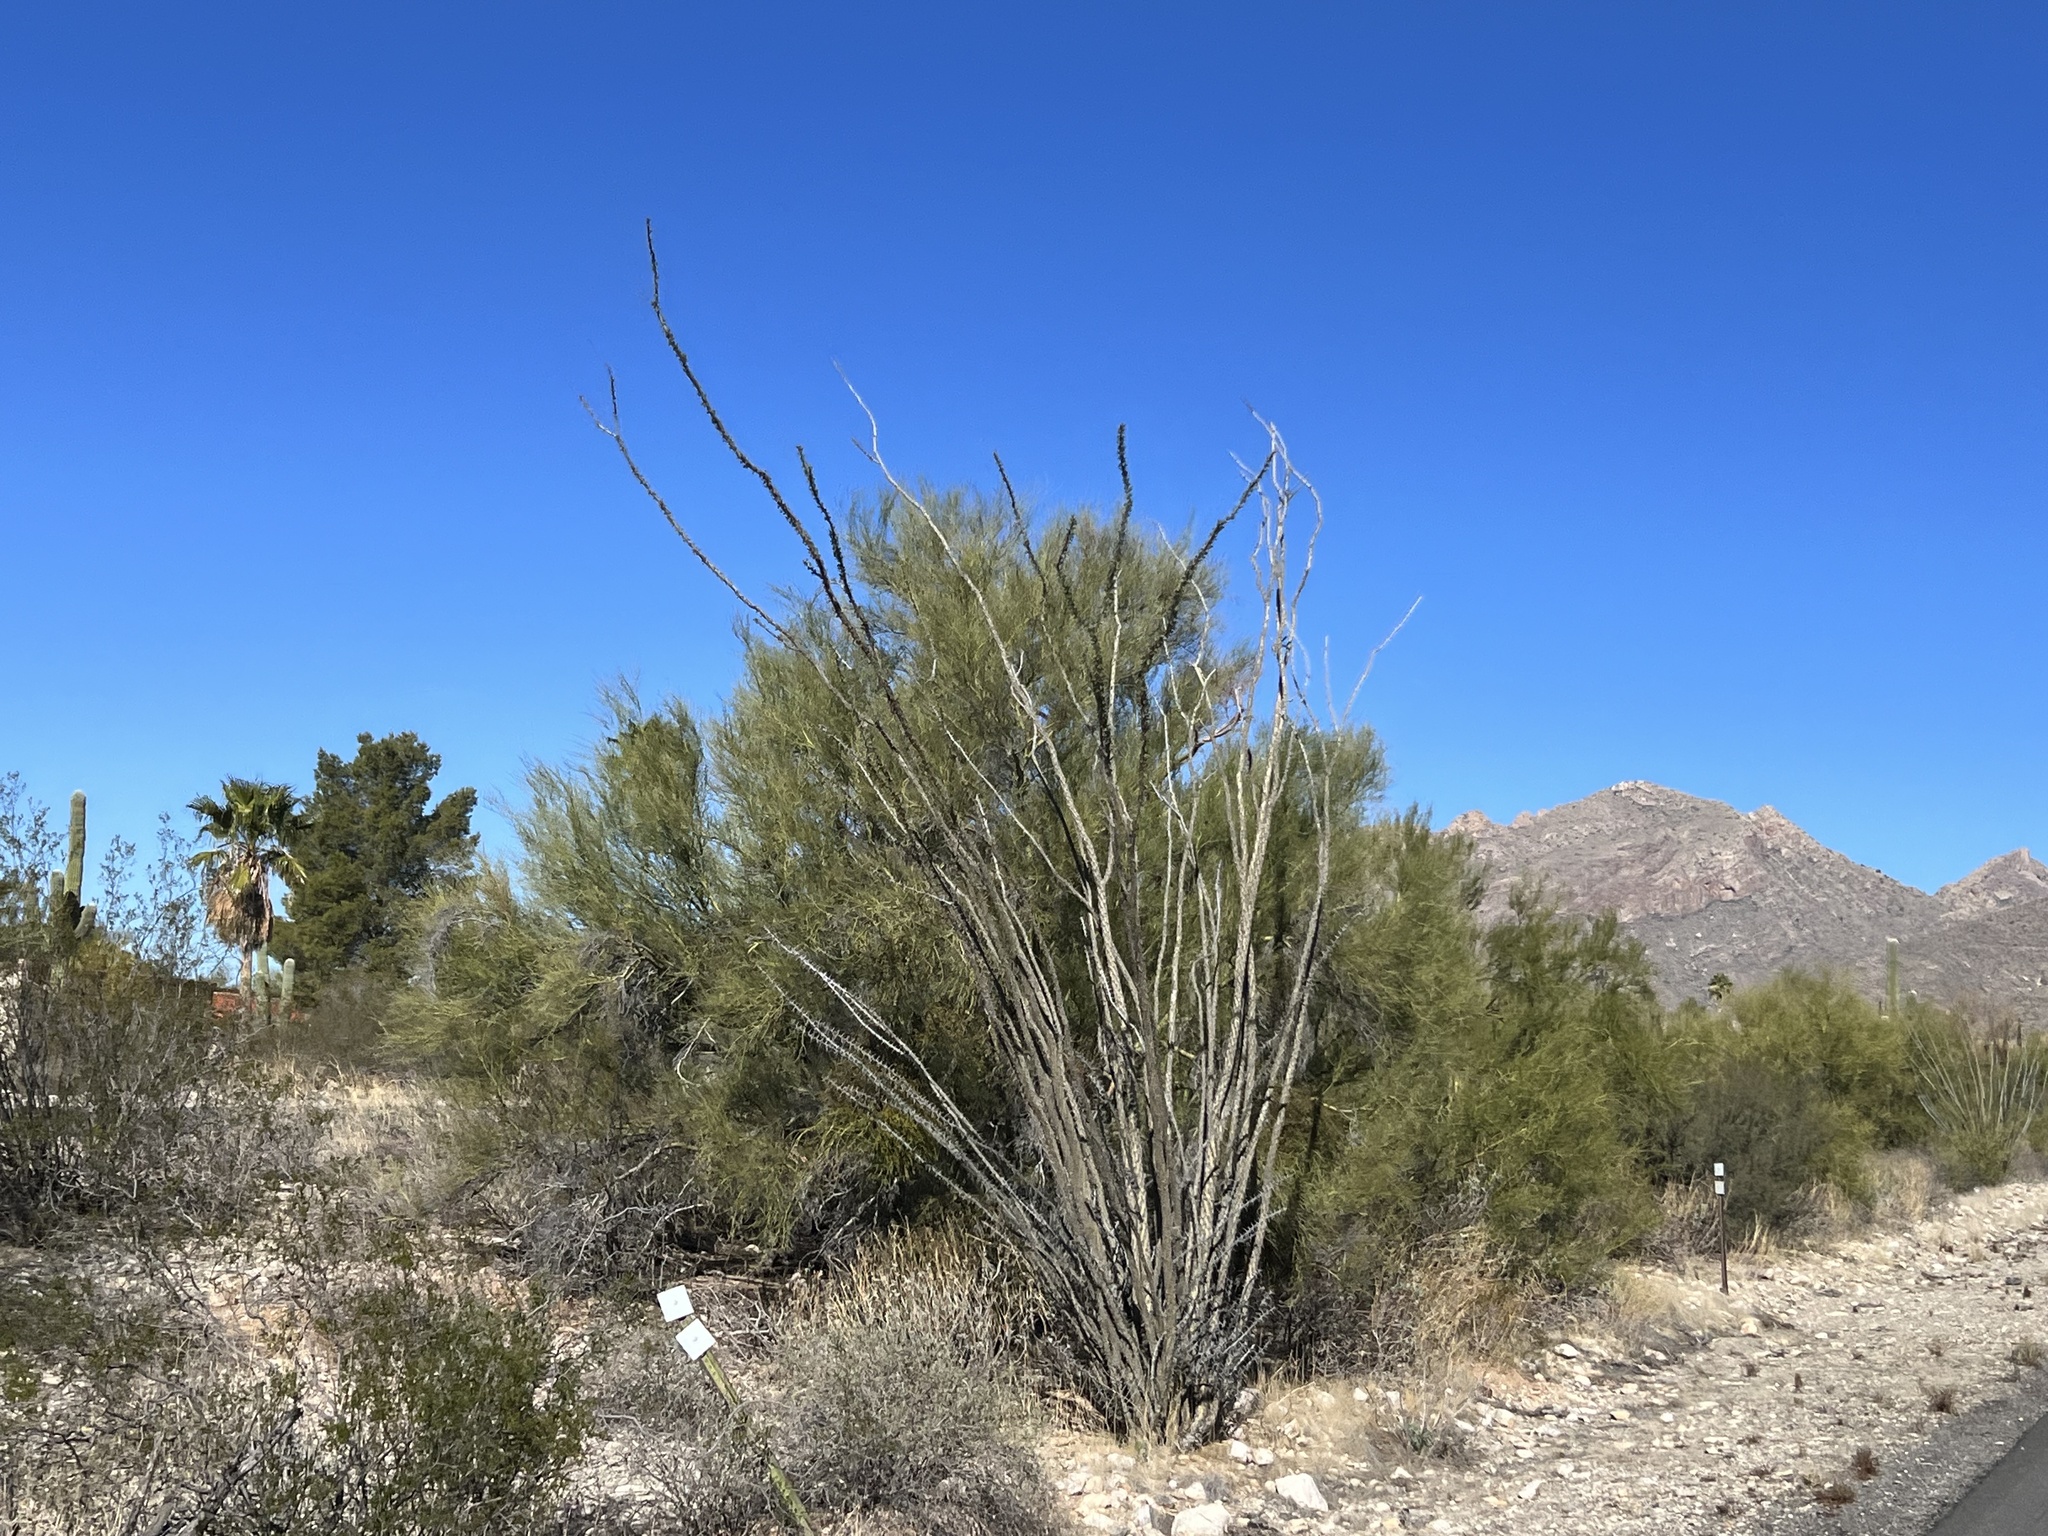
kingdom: Plantae
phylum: Tracheophyta
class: Magnoliopsida
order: Ericales
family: Fouquieriaceae
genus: Fouquieria
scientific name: Fouquieria splendens
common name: Vine-cactus
